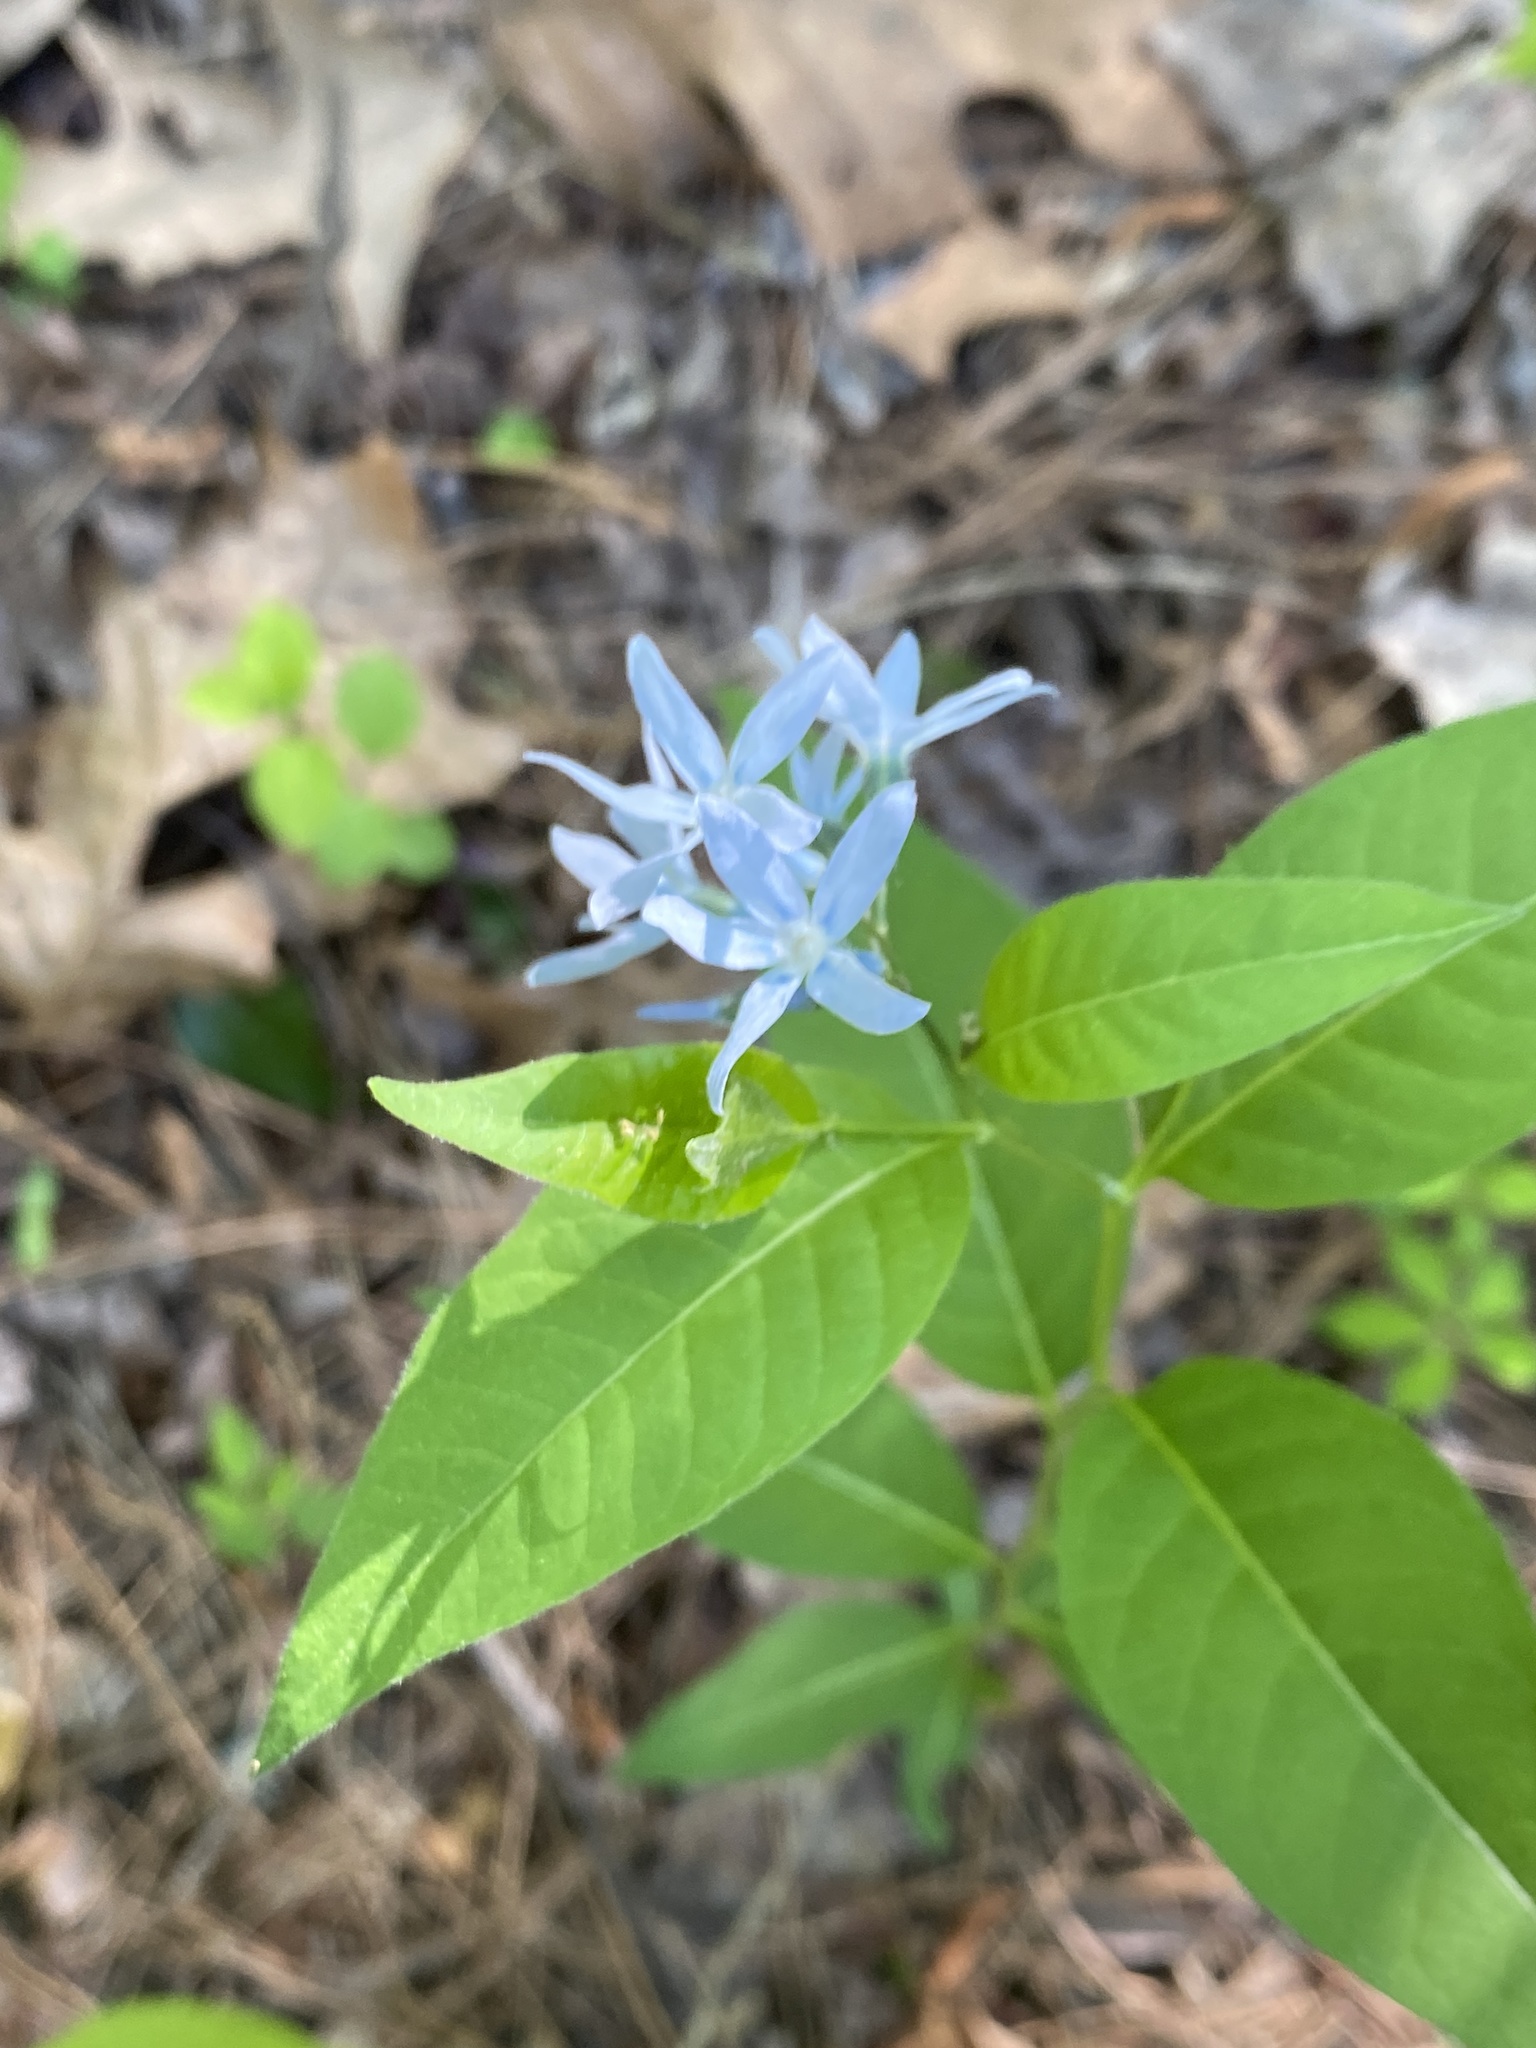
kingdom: Plantae
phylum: Tracheophyta
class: Magnoliopsida
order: Gentianales
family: Apocynaceae
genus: Amsonia
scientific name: Amsonia tabernaemontana
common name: Texas-star
